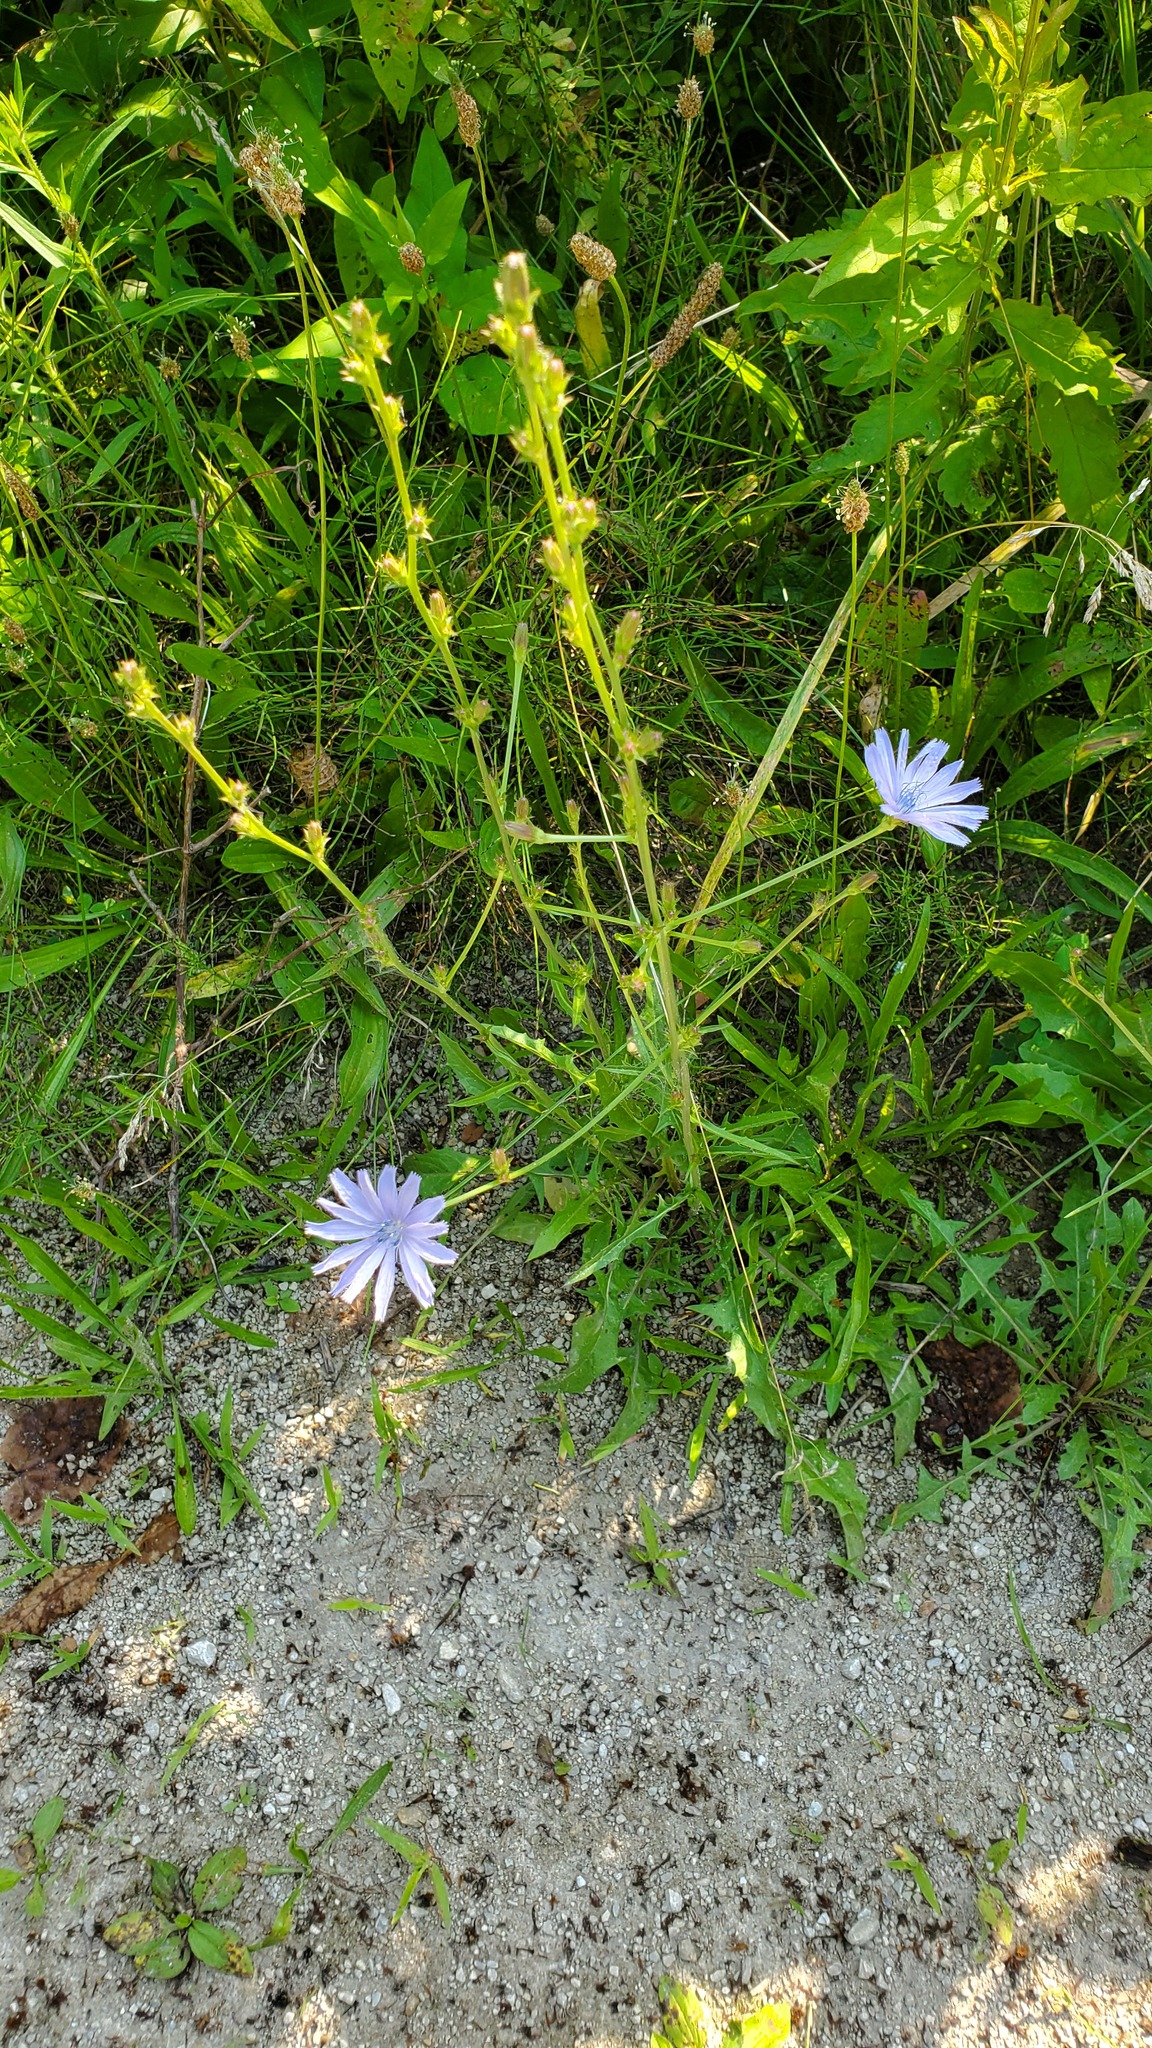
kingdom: Plantae
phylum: Tracheophyta
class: Magnoliopsida
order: Asterales
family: Asteraceae
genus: Cichorium
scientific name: Cichorium intybus
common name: Chicory
